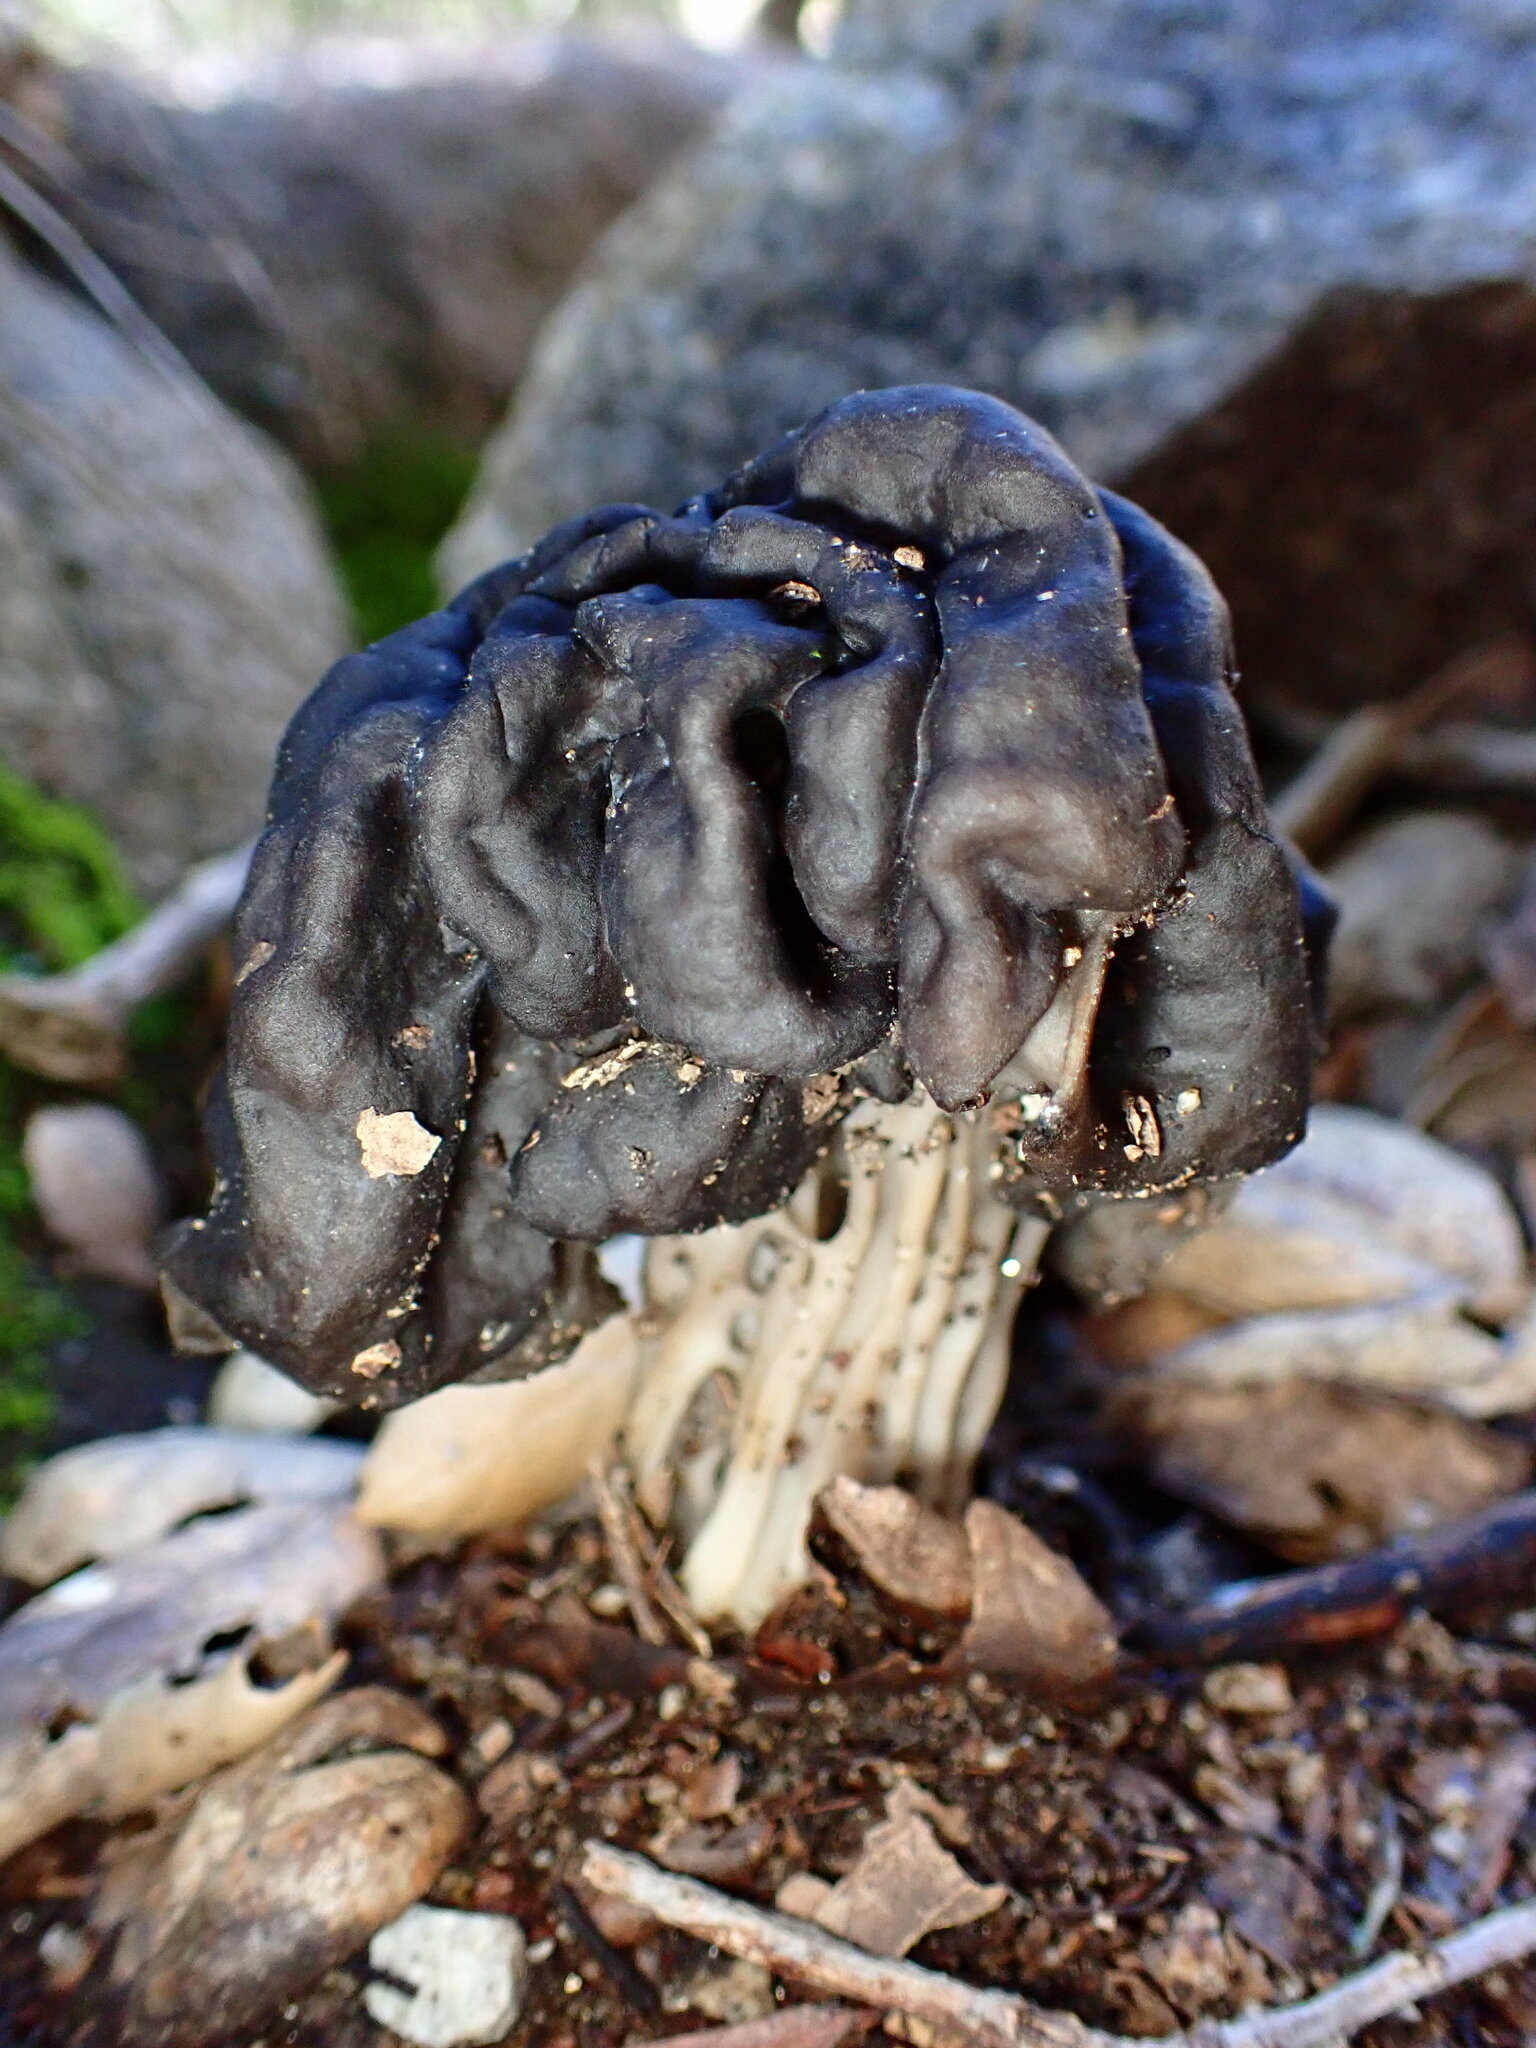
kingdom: Fungi
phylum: Ascomycota
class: Pezizomycetes
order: Pezizales
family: Helvellaceae
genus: Helvella
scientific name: Helvella dryophila
